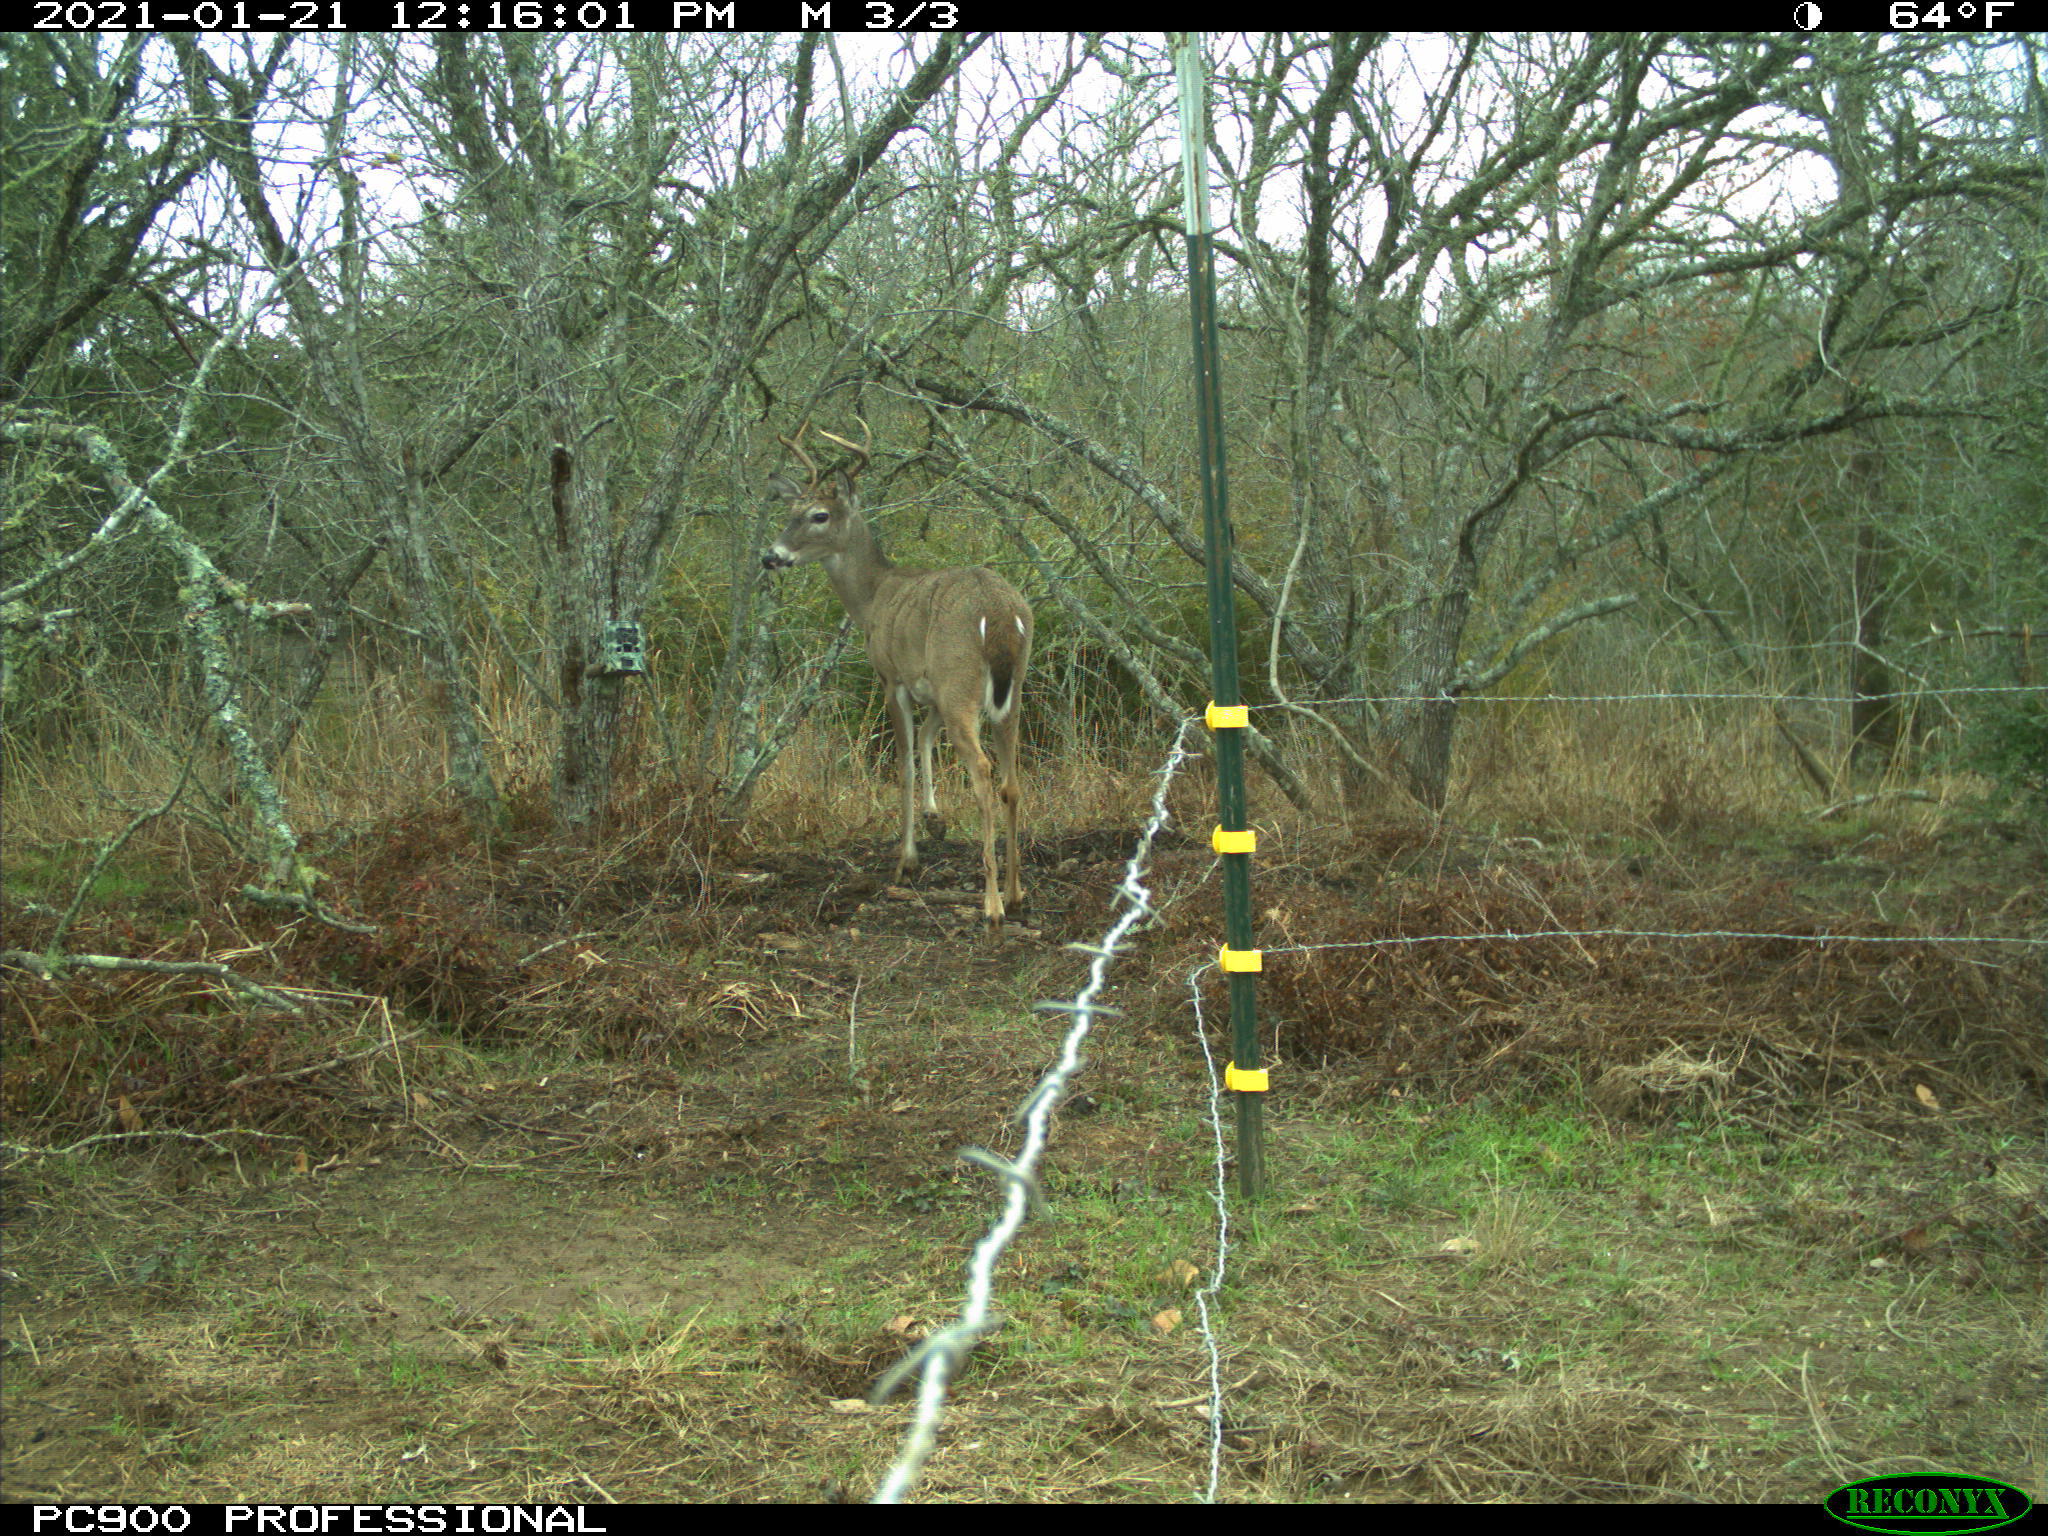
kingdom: Animalia
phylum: Chordata
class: Mammalia
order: Artiodactyla
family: Cervidae
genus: Odocoileus
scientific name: Odocoileus virginianus
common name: White-tailed deer
